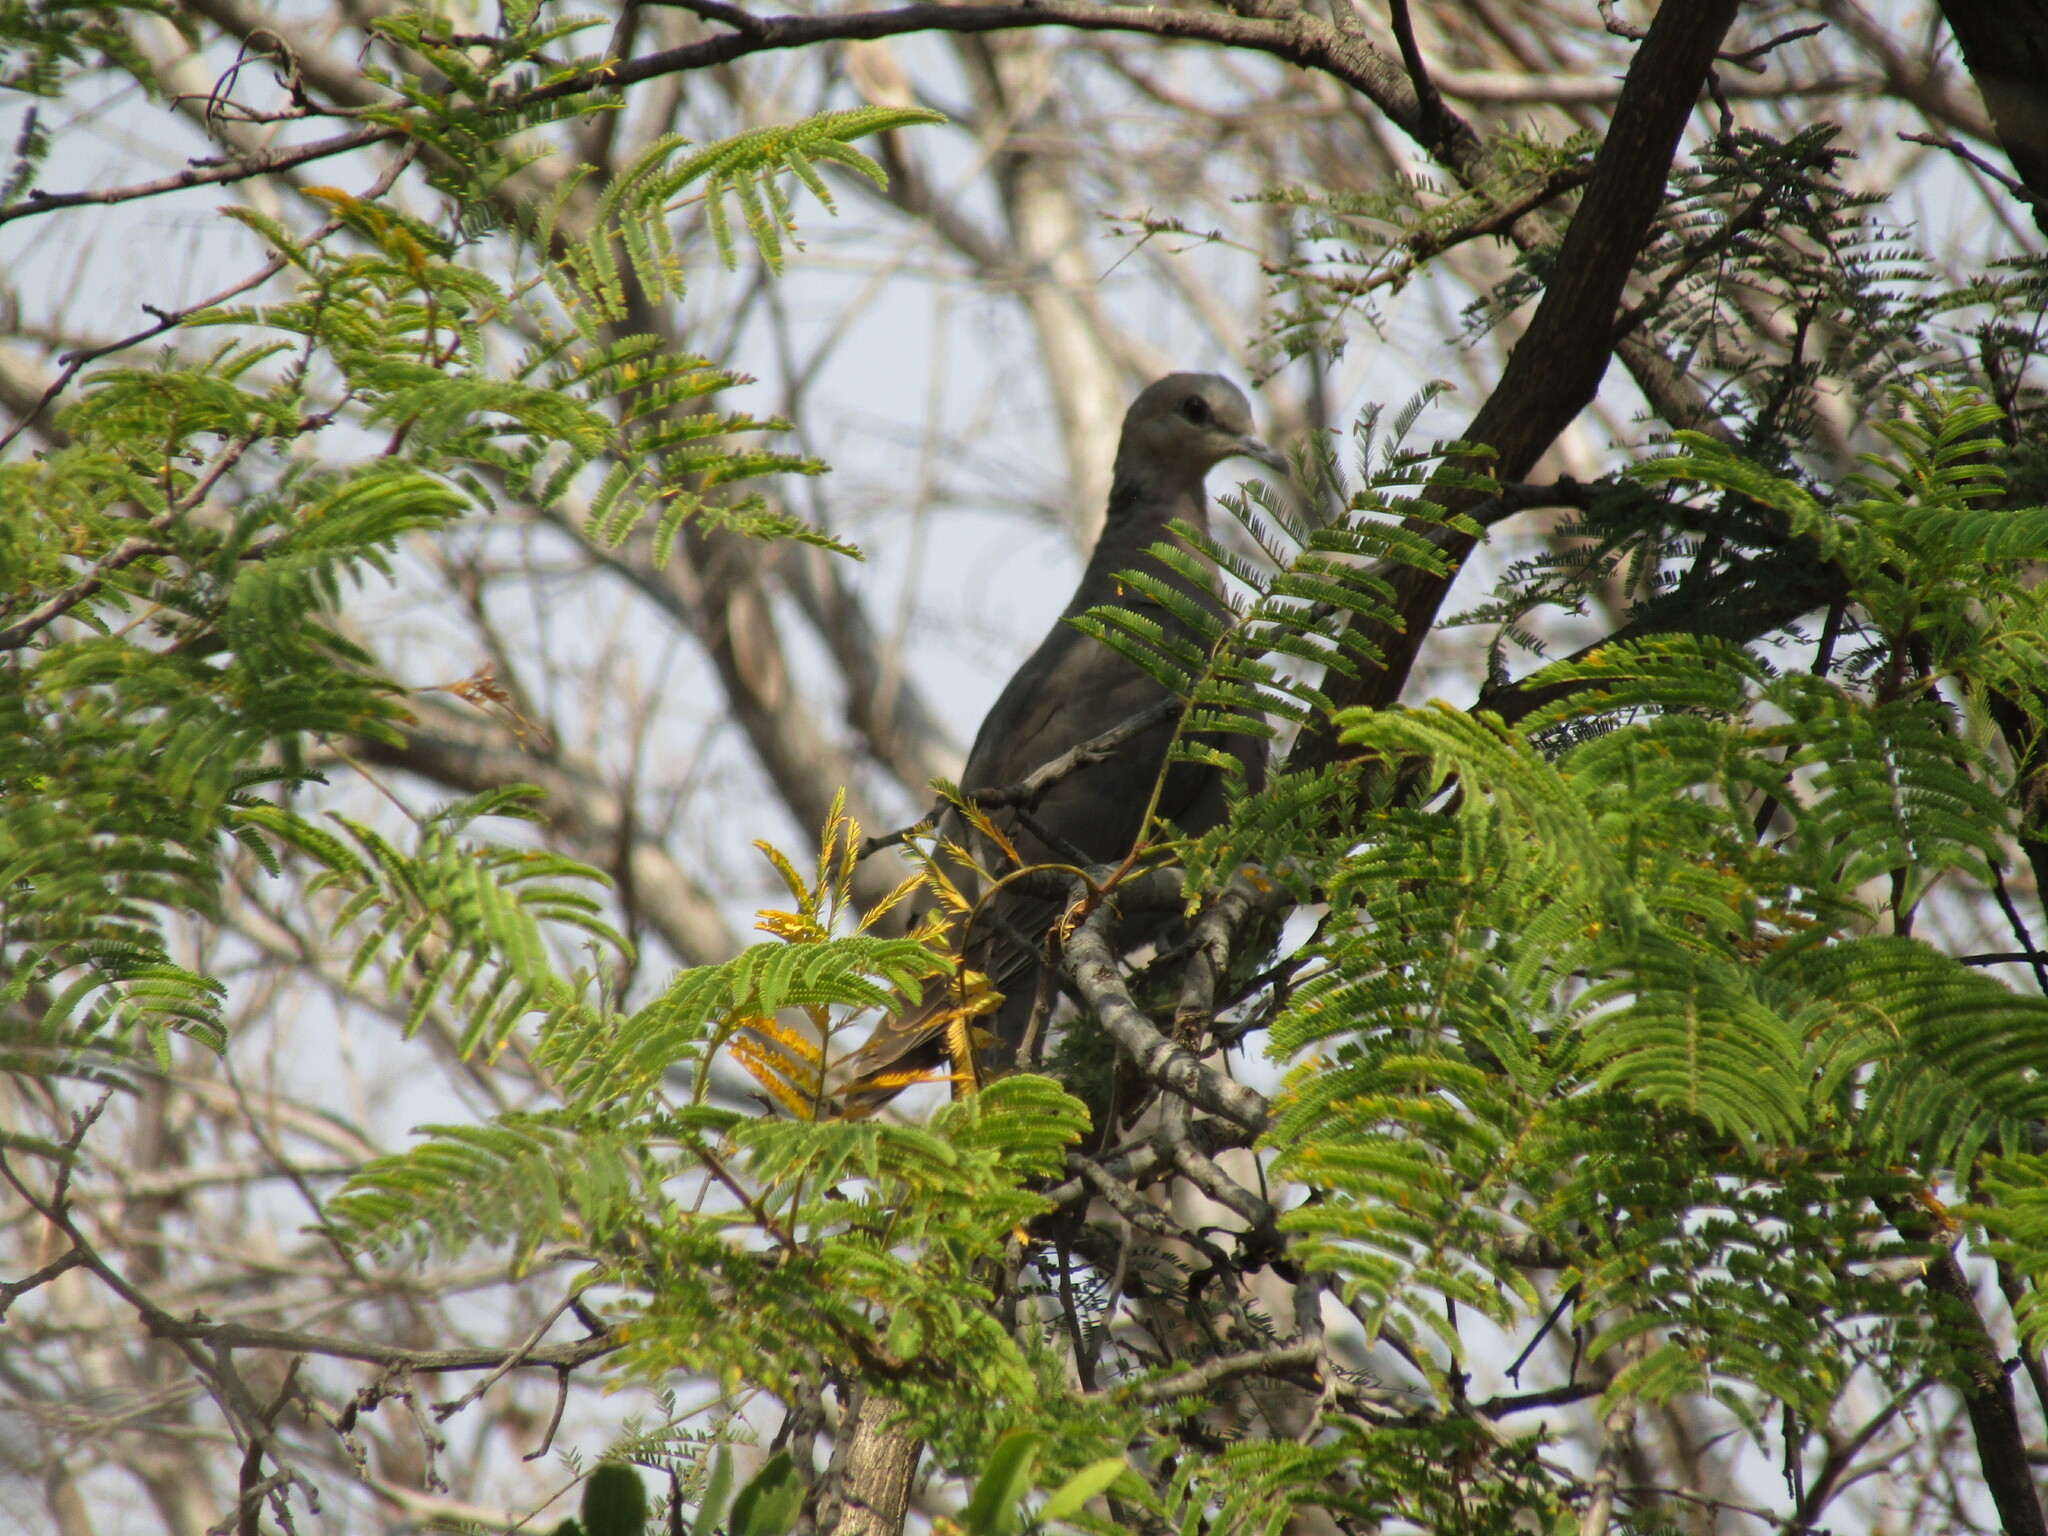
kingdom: Animalia
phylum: Chordata
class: Aves
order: Columbiformes
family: Columbidae
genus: Streptopelia
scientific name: Streptopelia semitorquata
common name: Red-eyed dove
